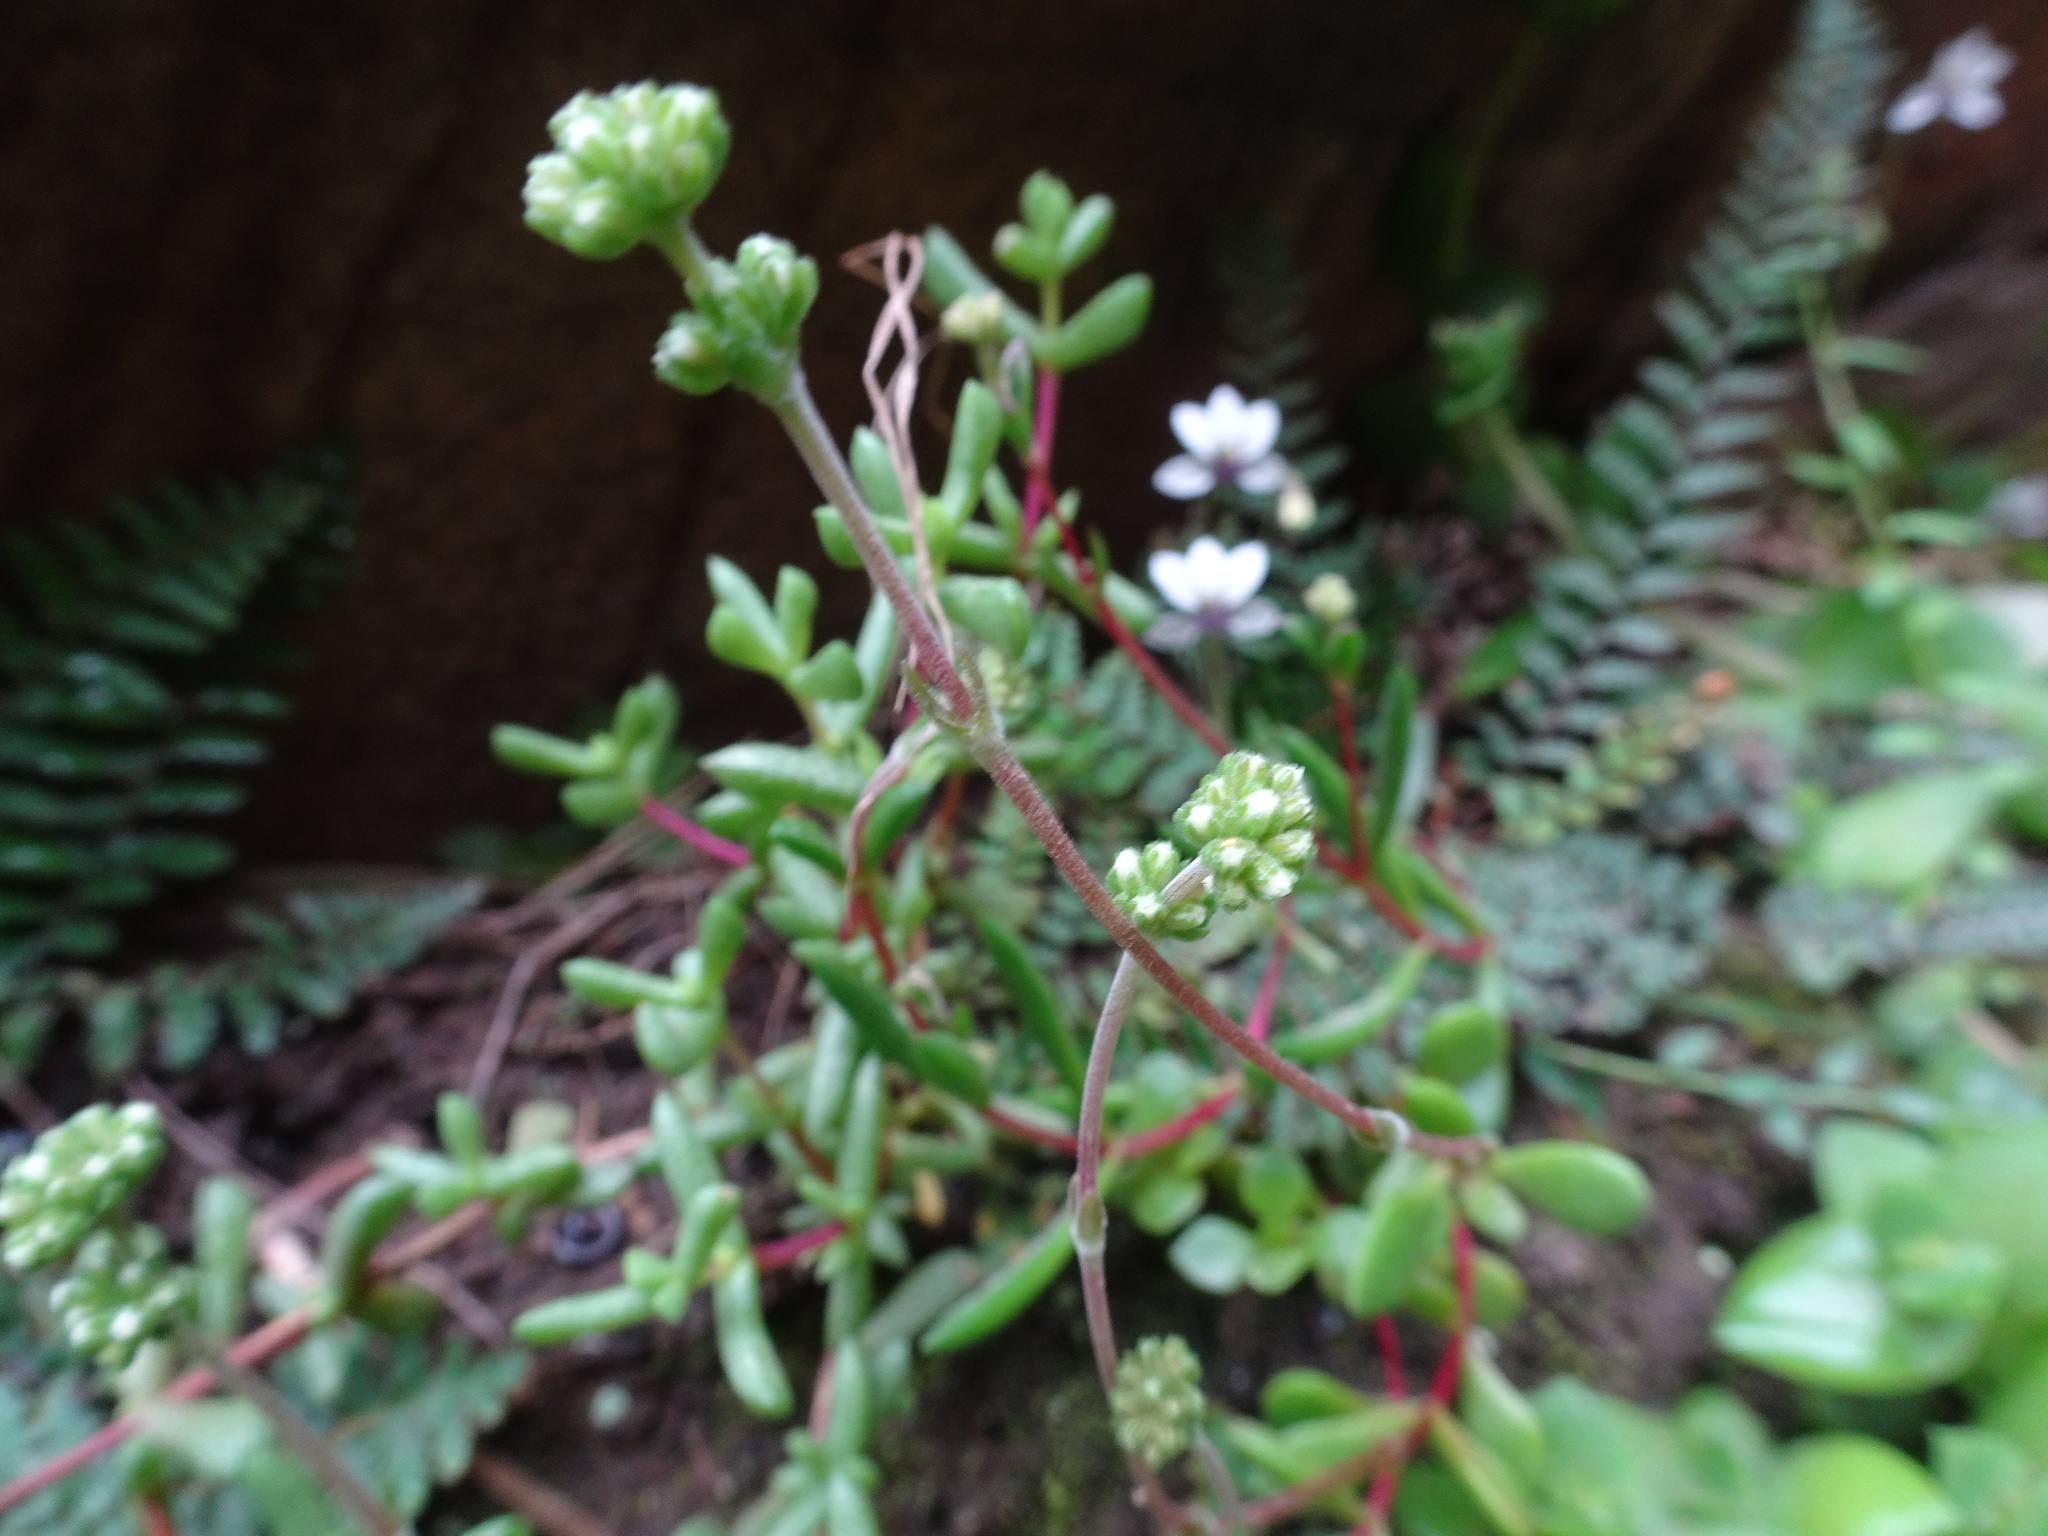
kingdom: Plantae
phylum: Tracheophyta
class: Magnoliopsida
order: Saxifragales
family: Crassulaceae
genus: Crassula
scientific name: Crassula pubescens
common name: Jersey pigmyweed
